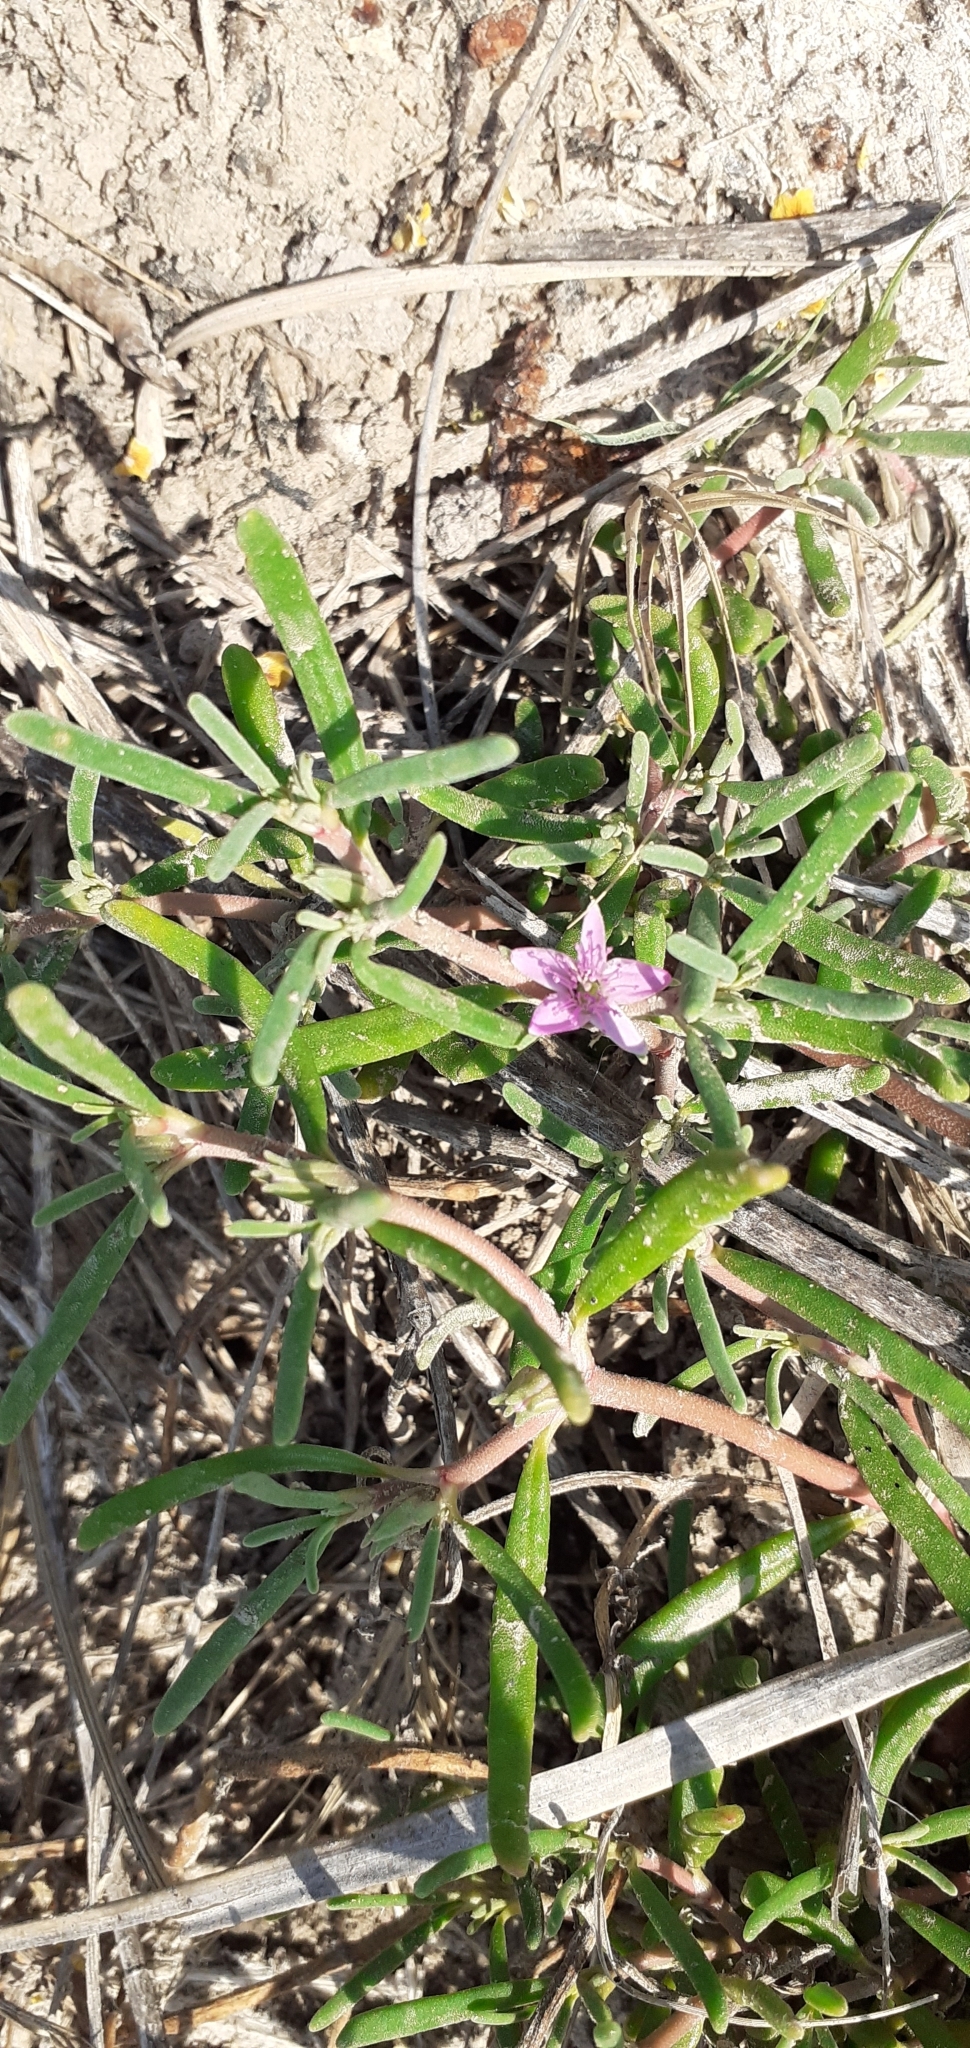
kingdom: Plantae
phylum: Tracheophyta
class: Magnoliopsida
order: Caryophyllales
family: Aizoaceae
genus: Sesuvium
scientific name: Sesuvium portulacastrum
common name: Sea-purslane
